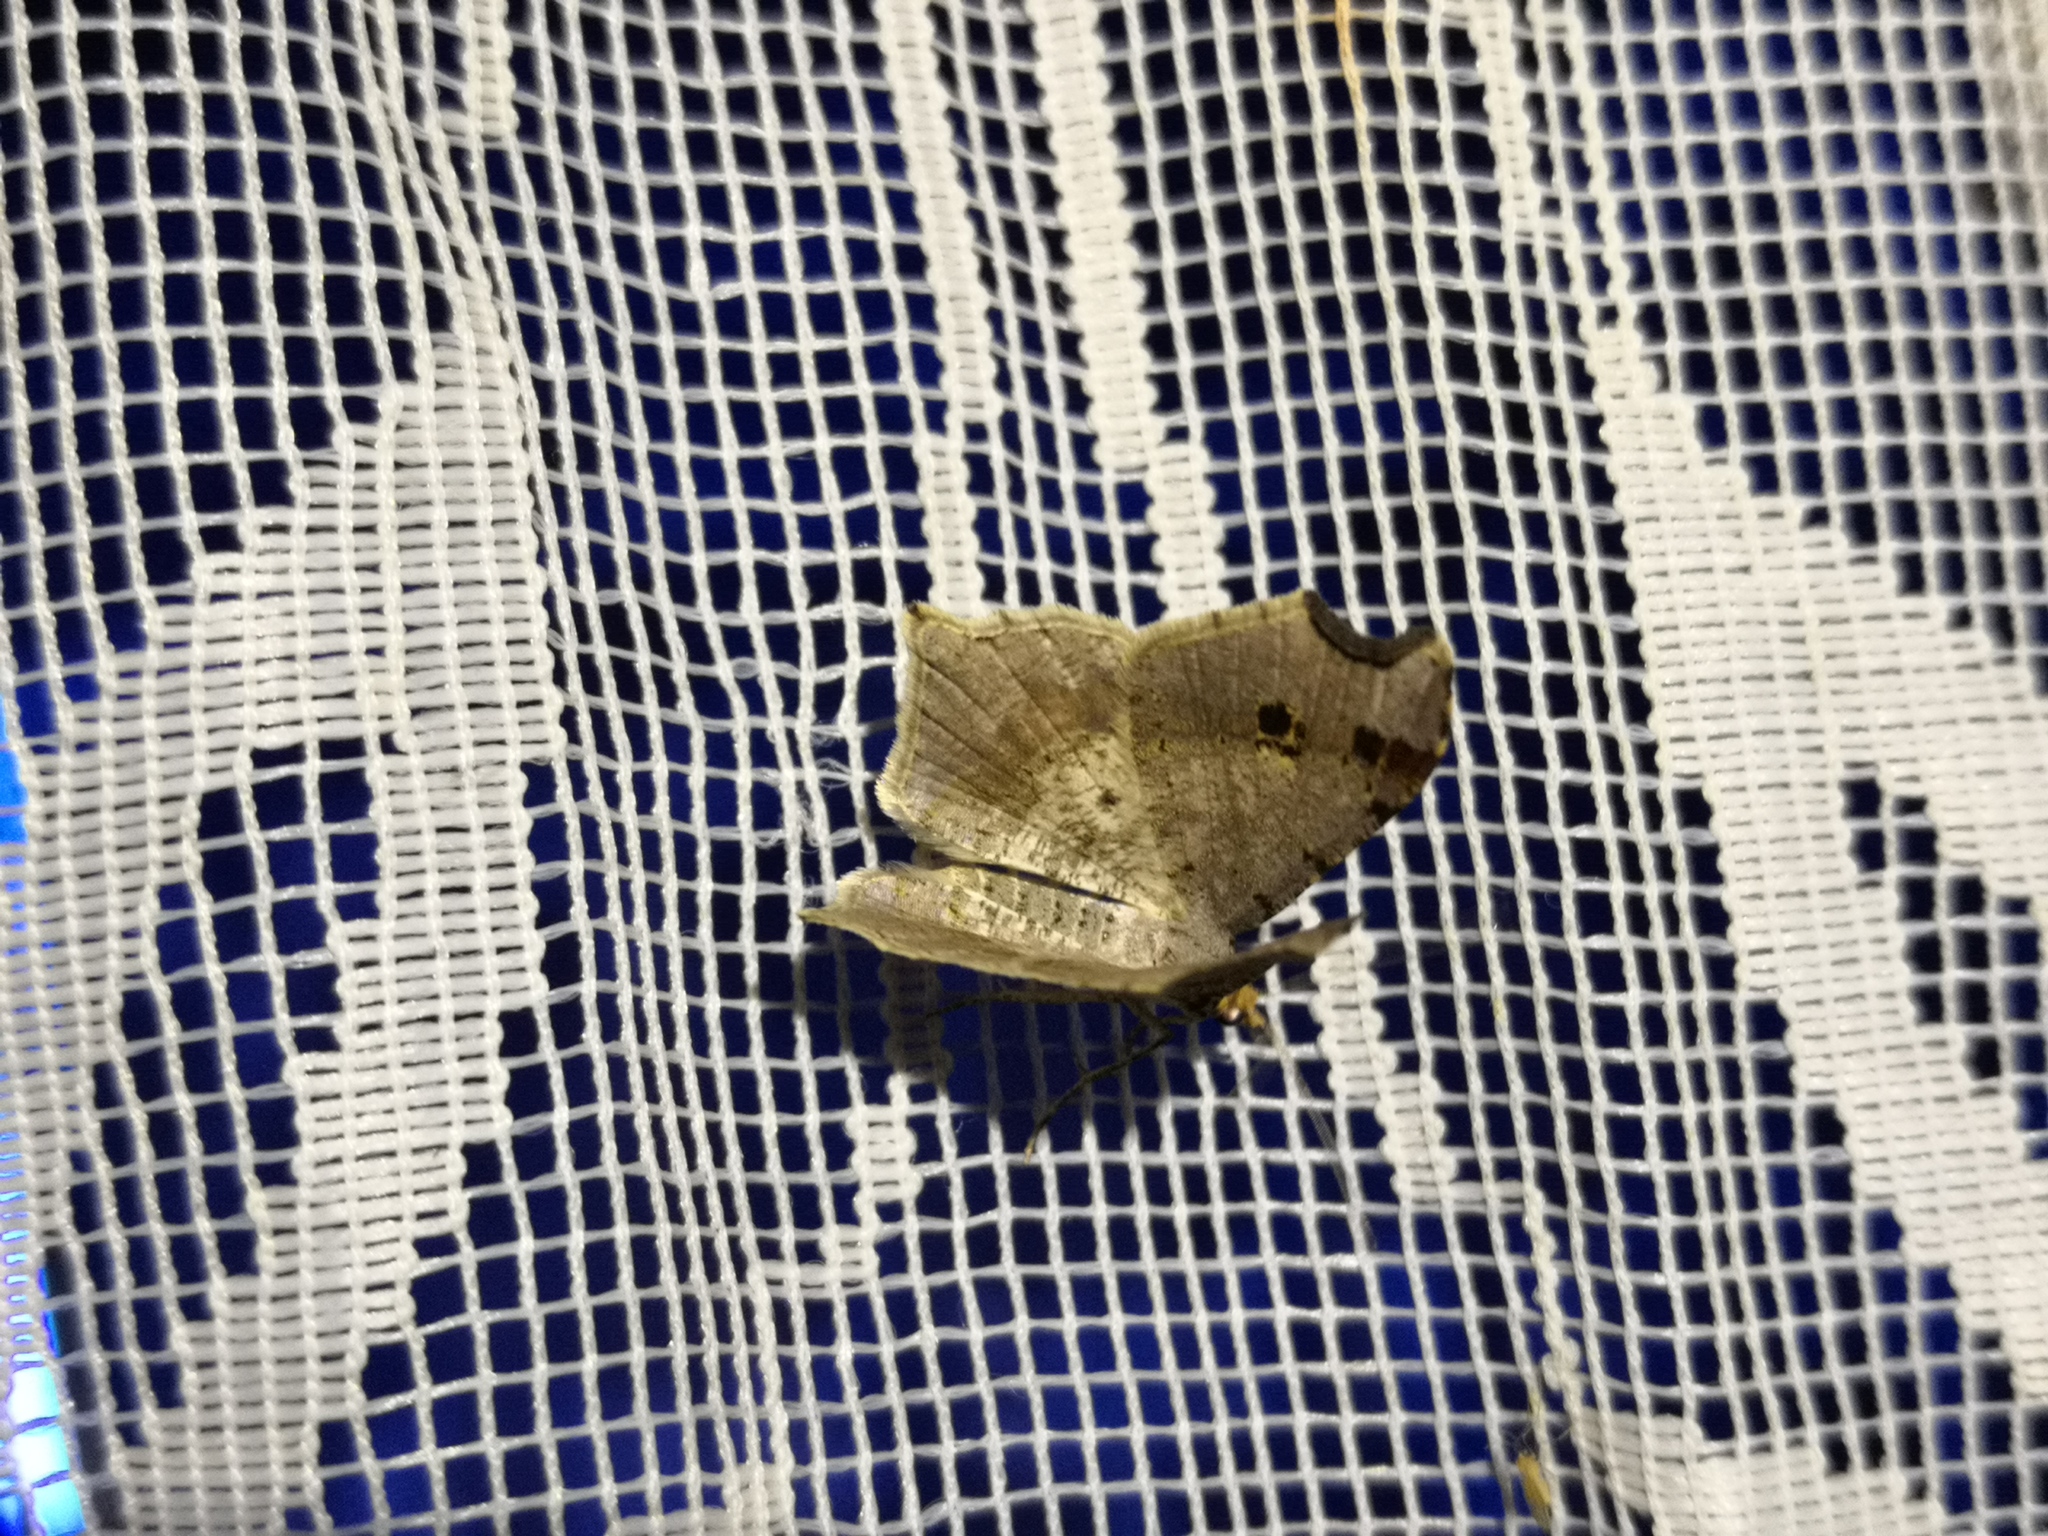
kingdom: Animalia
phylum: Arthropoda
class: Insecta
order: Lepidoptera
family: Geometridae
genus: Macaria
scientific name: Macaria alternata
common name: Sharp-angled peacock
